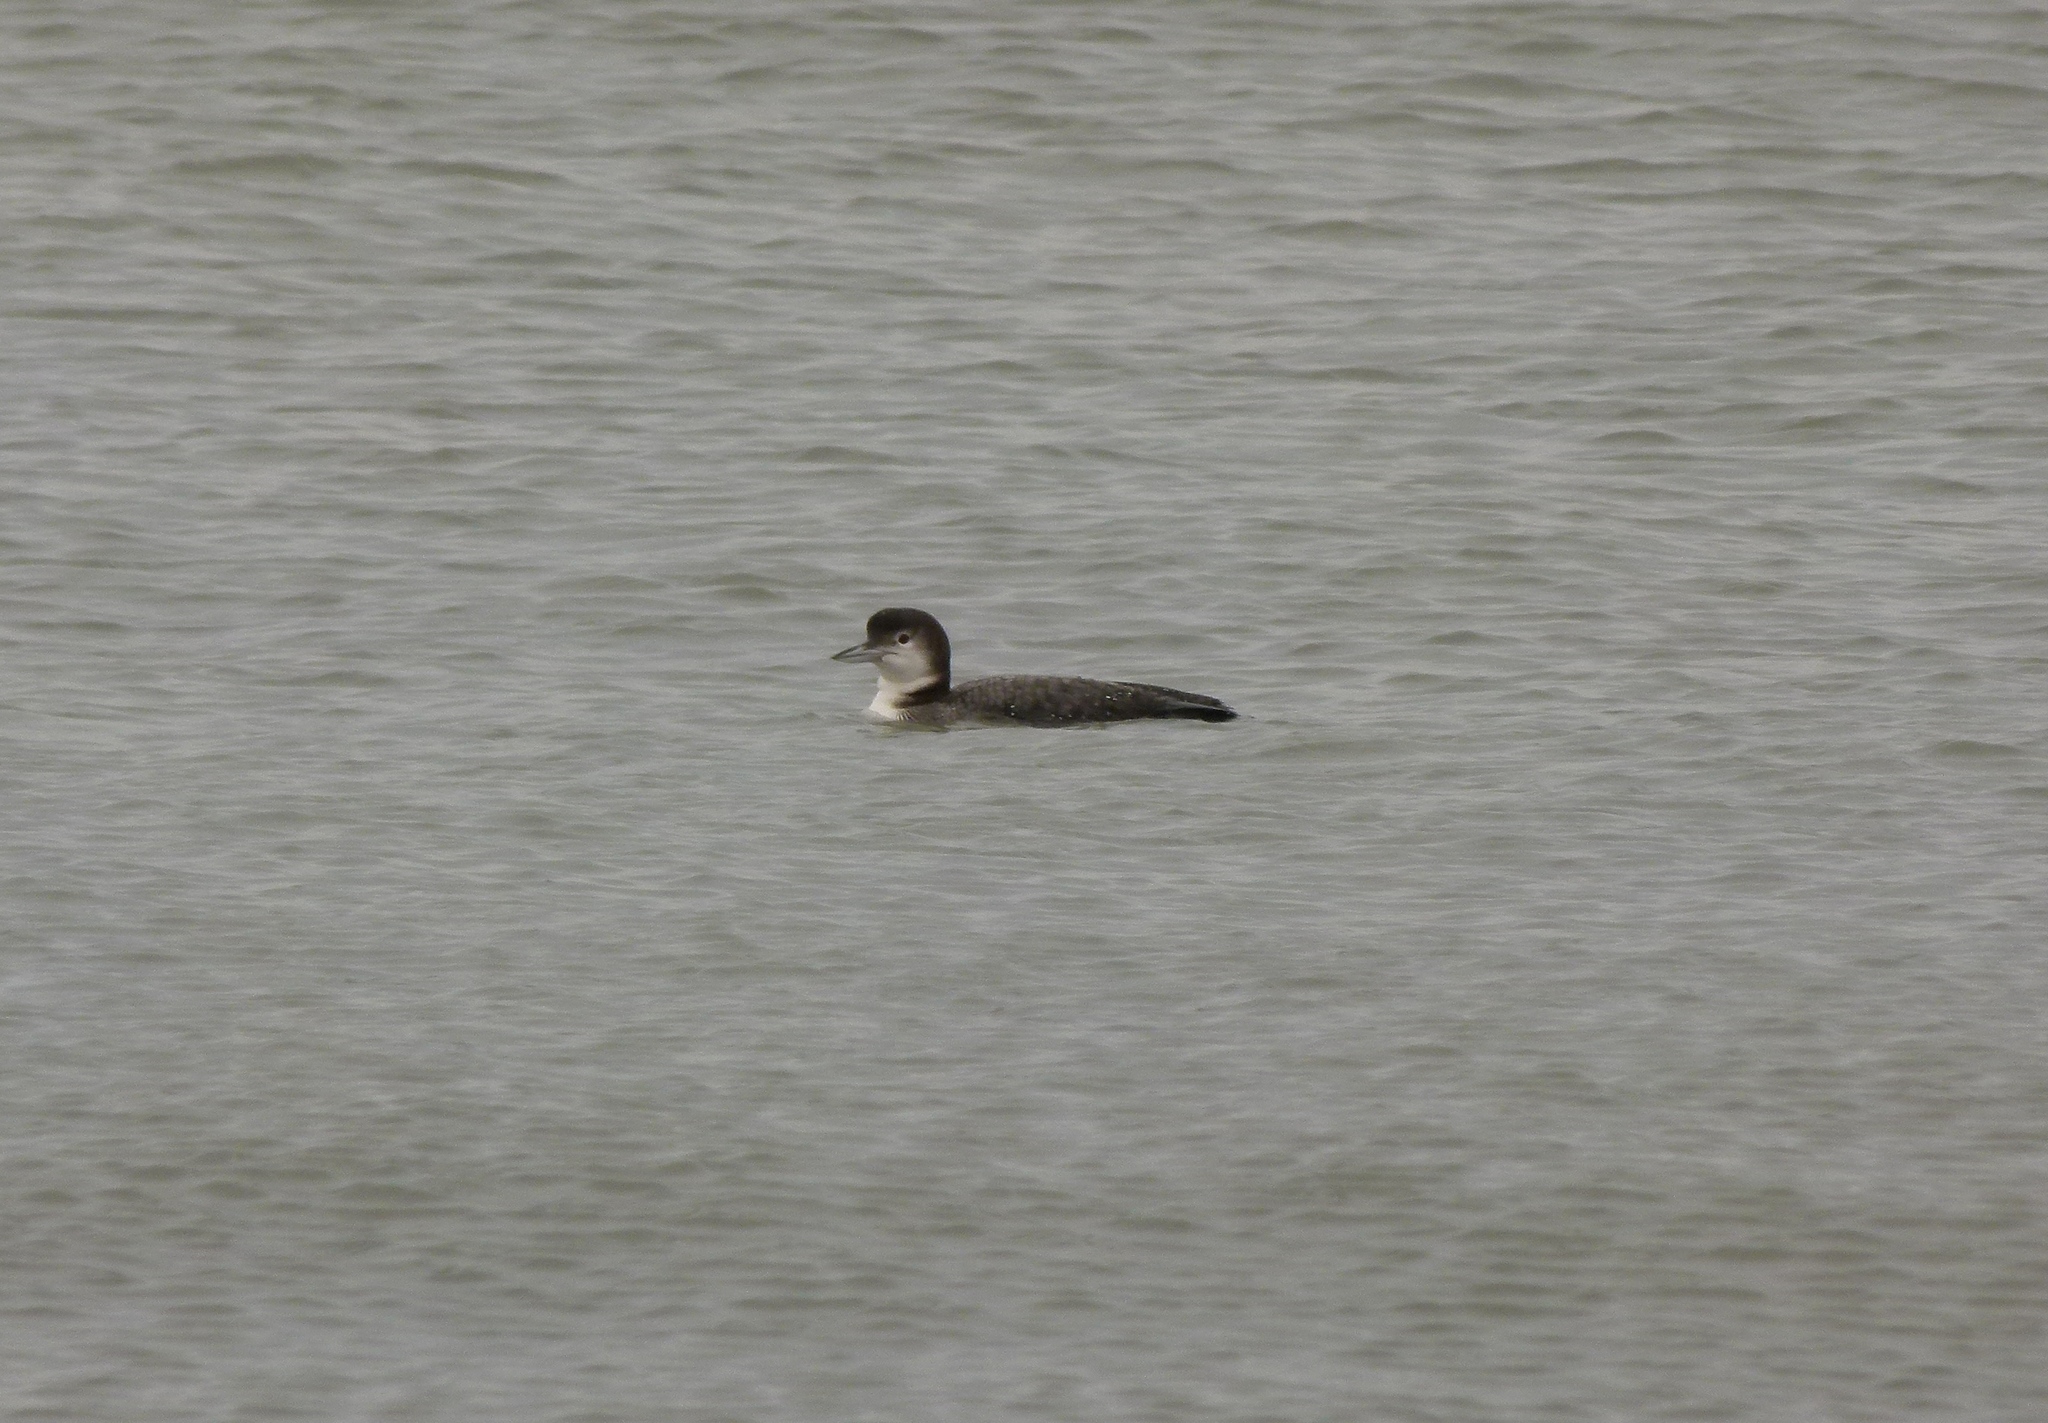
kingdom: Animalia
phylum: Chordata
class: Aves
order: Gaviiformes
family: Gaviidae
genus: Gavia
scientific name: Gavia immer
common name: Common loon
